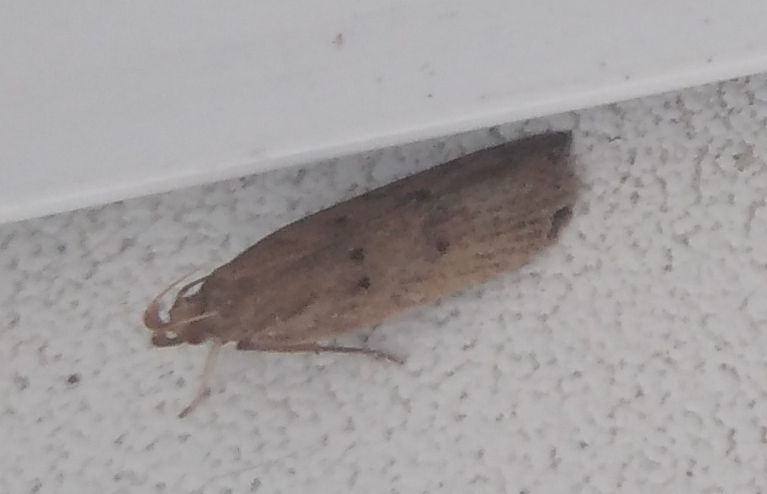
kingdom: Animalia
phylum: Arthropoda
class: Insecta
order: Lepidoptera
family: Gelechiidae
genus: Helcystogramma
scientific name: Helcystogramma lutatella
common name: Clay crest
